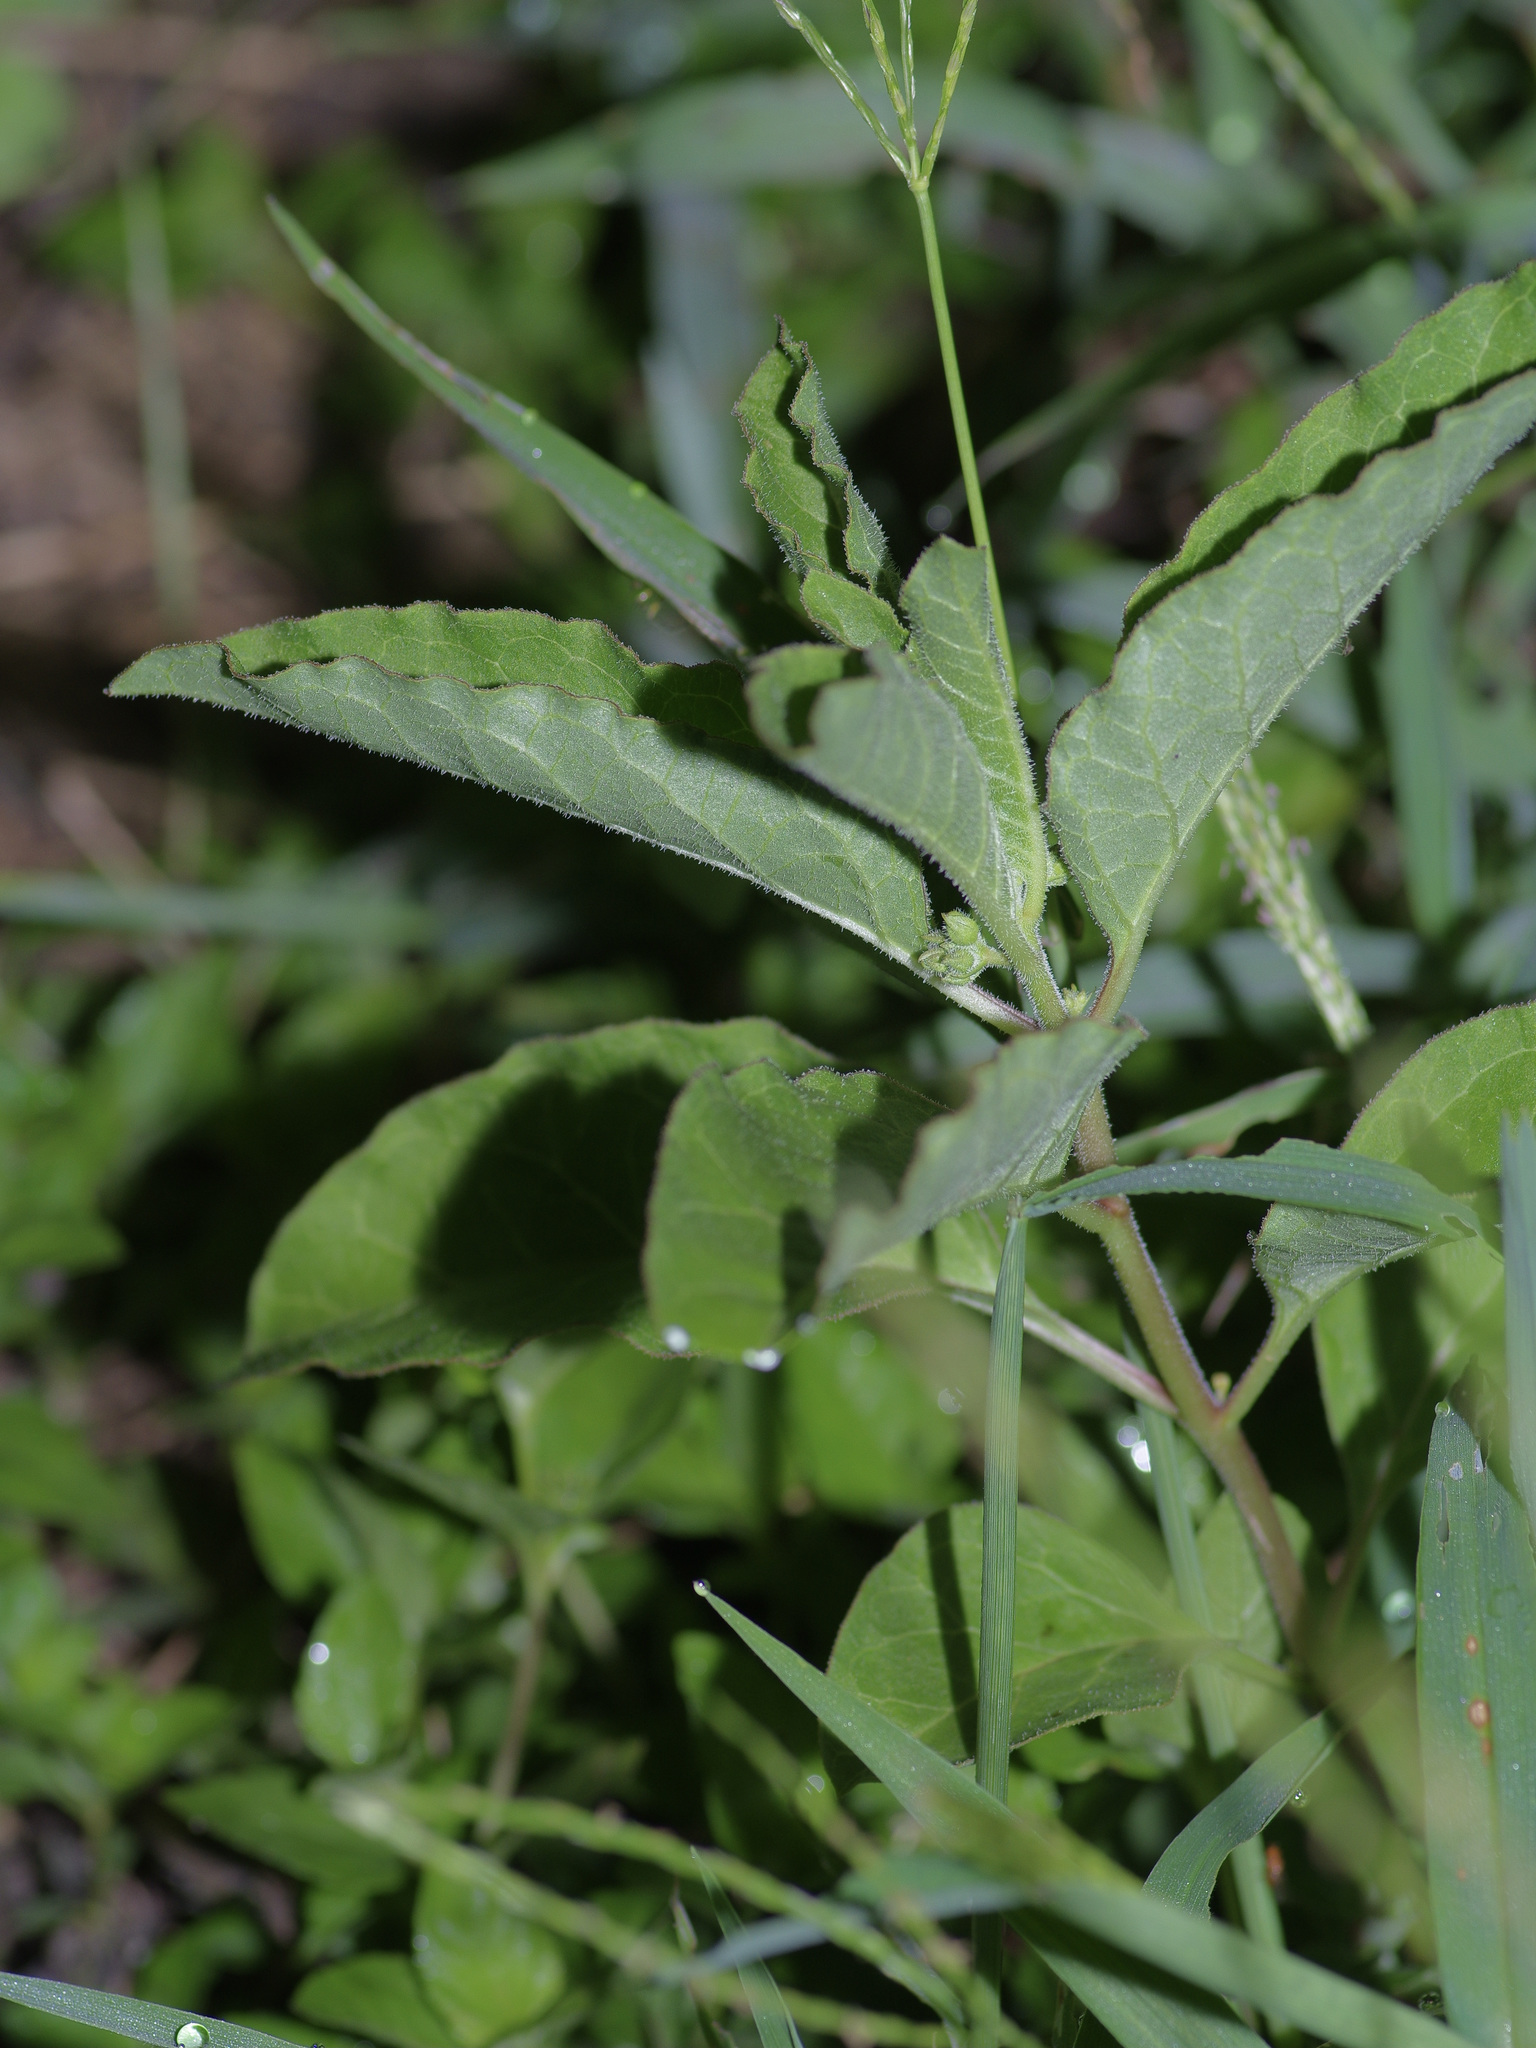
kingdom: Plantae
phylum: Tracheophyta
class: Magnoliopsida
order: Gentianales
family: Apocynaceae
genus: Asclepias
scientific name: Asclepias oenotheroides
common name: Zizotes milkweed
